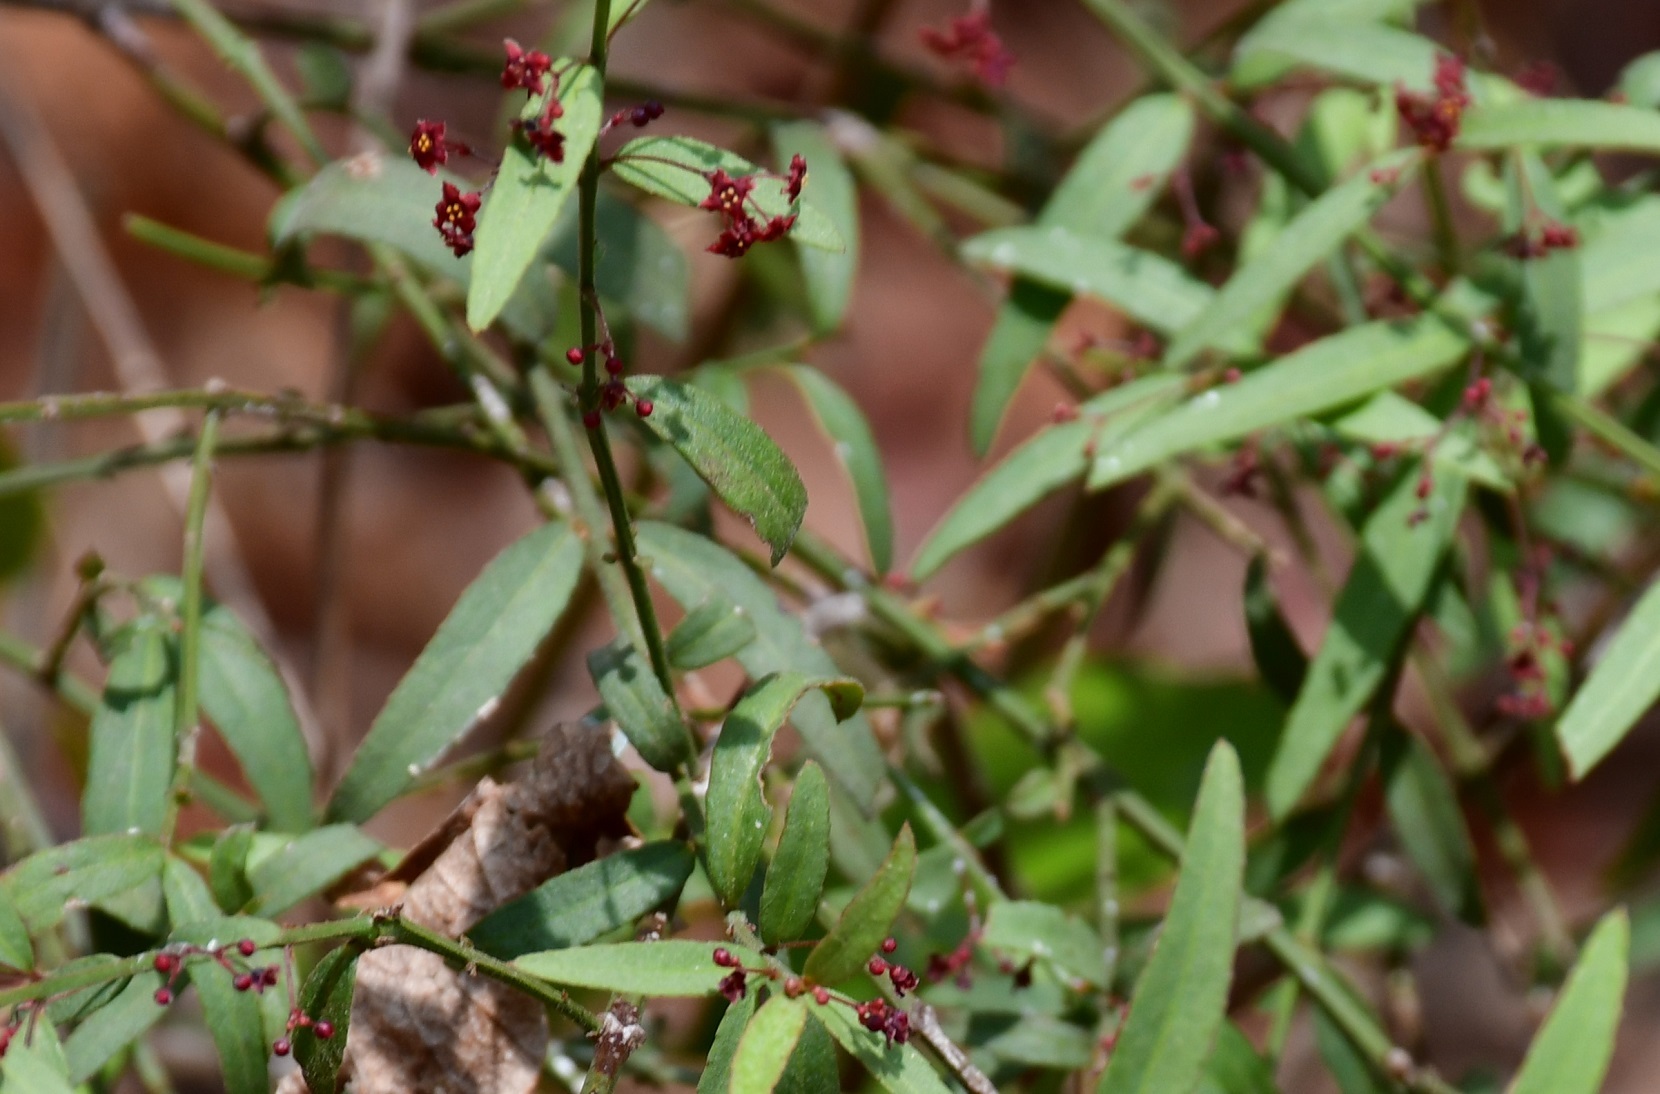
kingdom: Plantae
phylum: Tracheophyta
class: Magnoliopsida
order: Celastrales
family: Celastraceae
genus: Crossopetalum
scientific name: Crossopetalum uragoga
